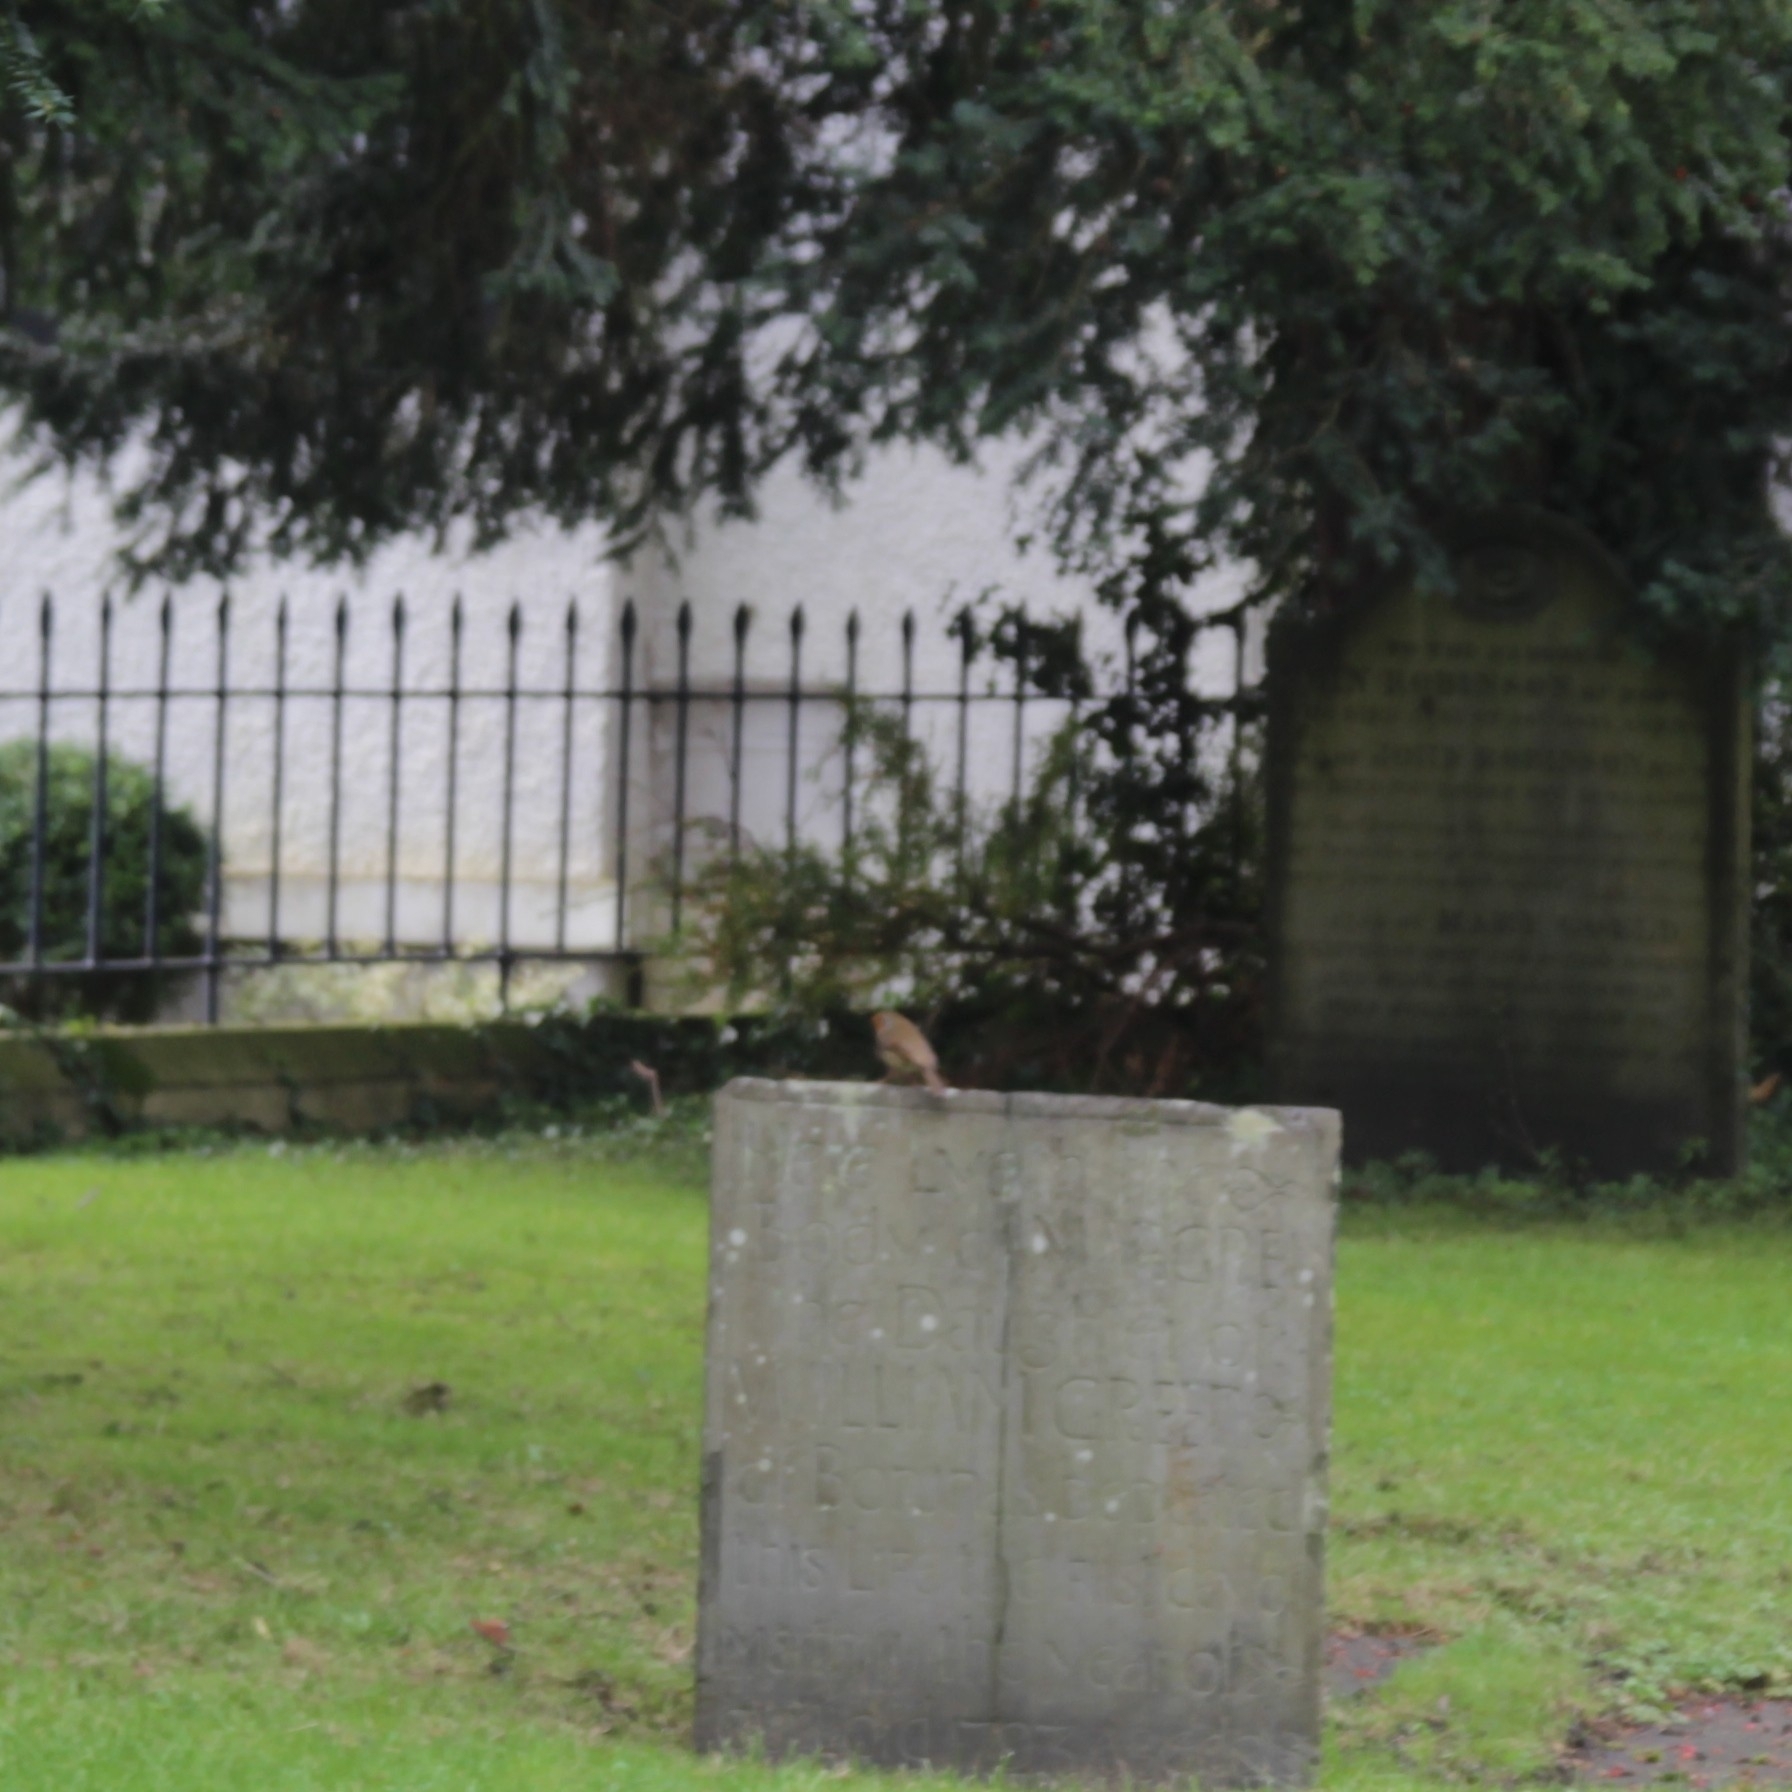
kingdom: Animalia
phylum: Chordata
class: Aves
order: Passeriformes
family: Muscicapidae
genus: Erithacus
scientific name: Erithacus rubecula
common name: European robin
